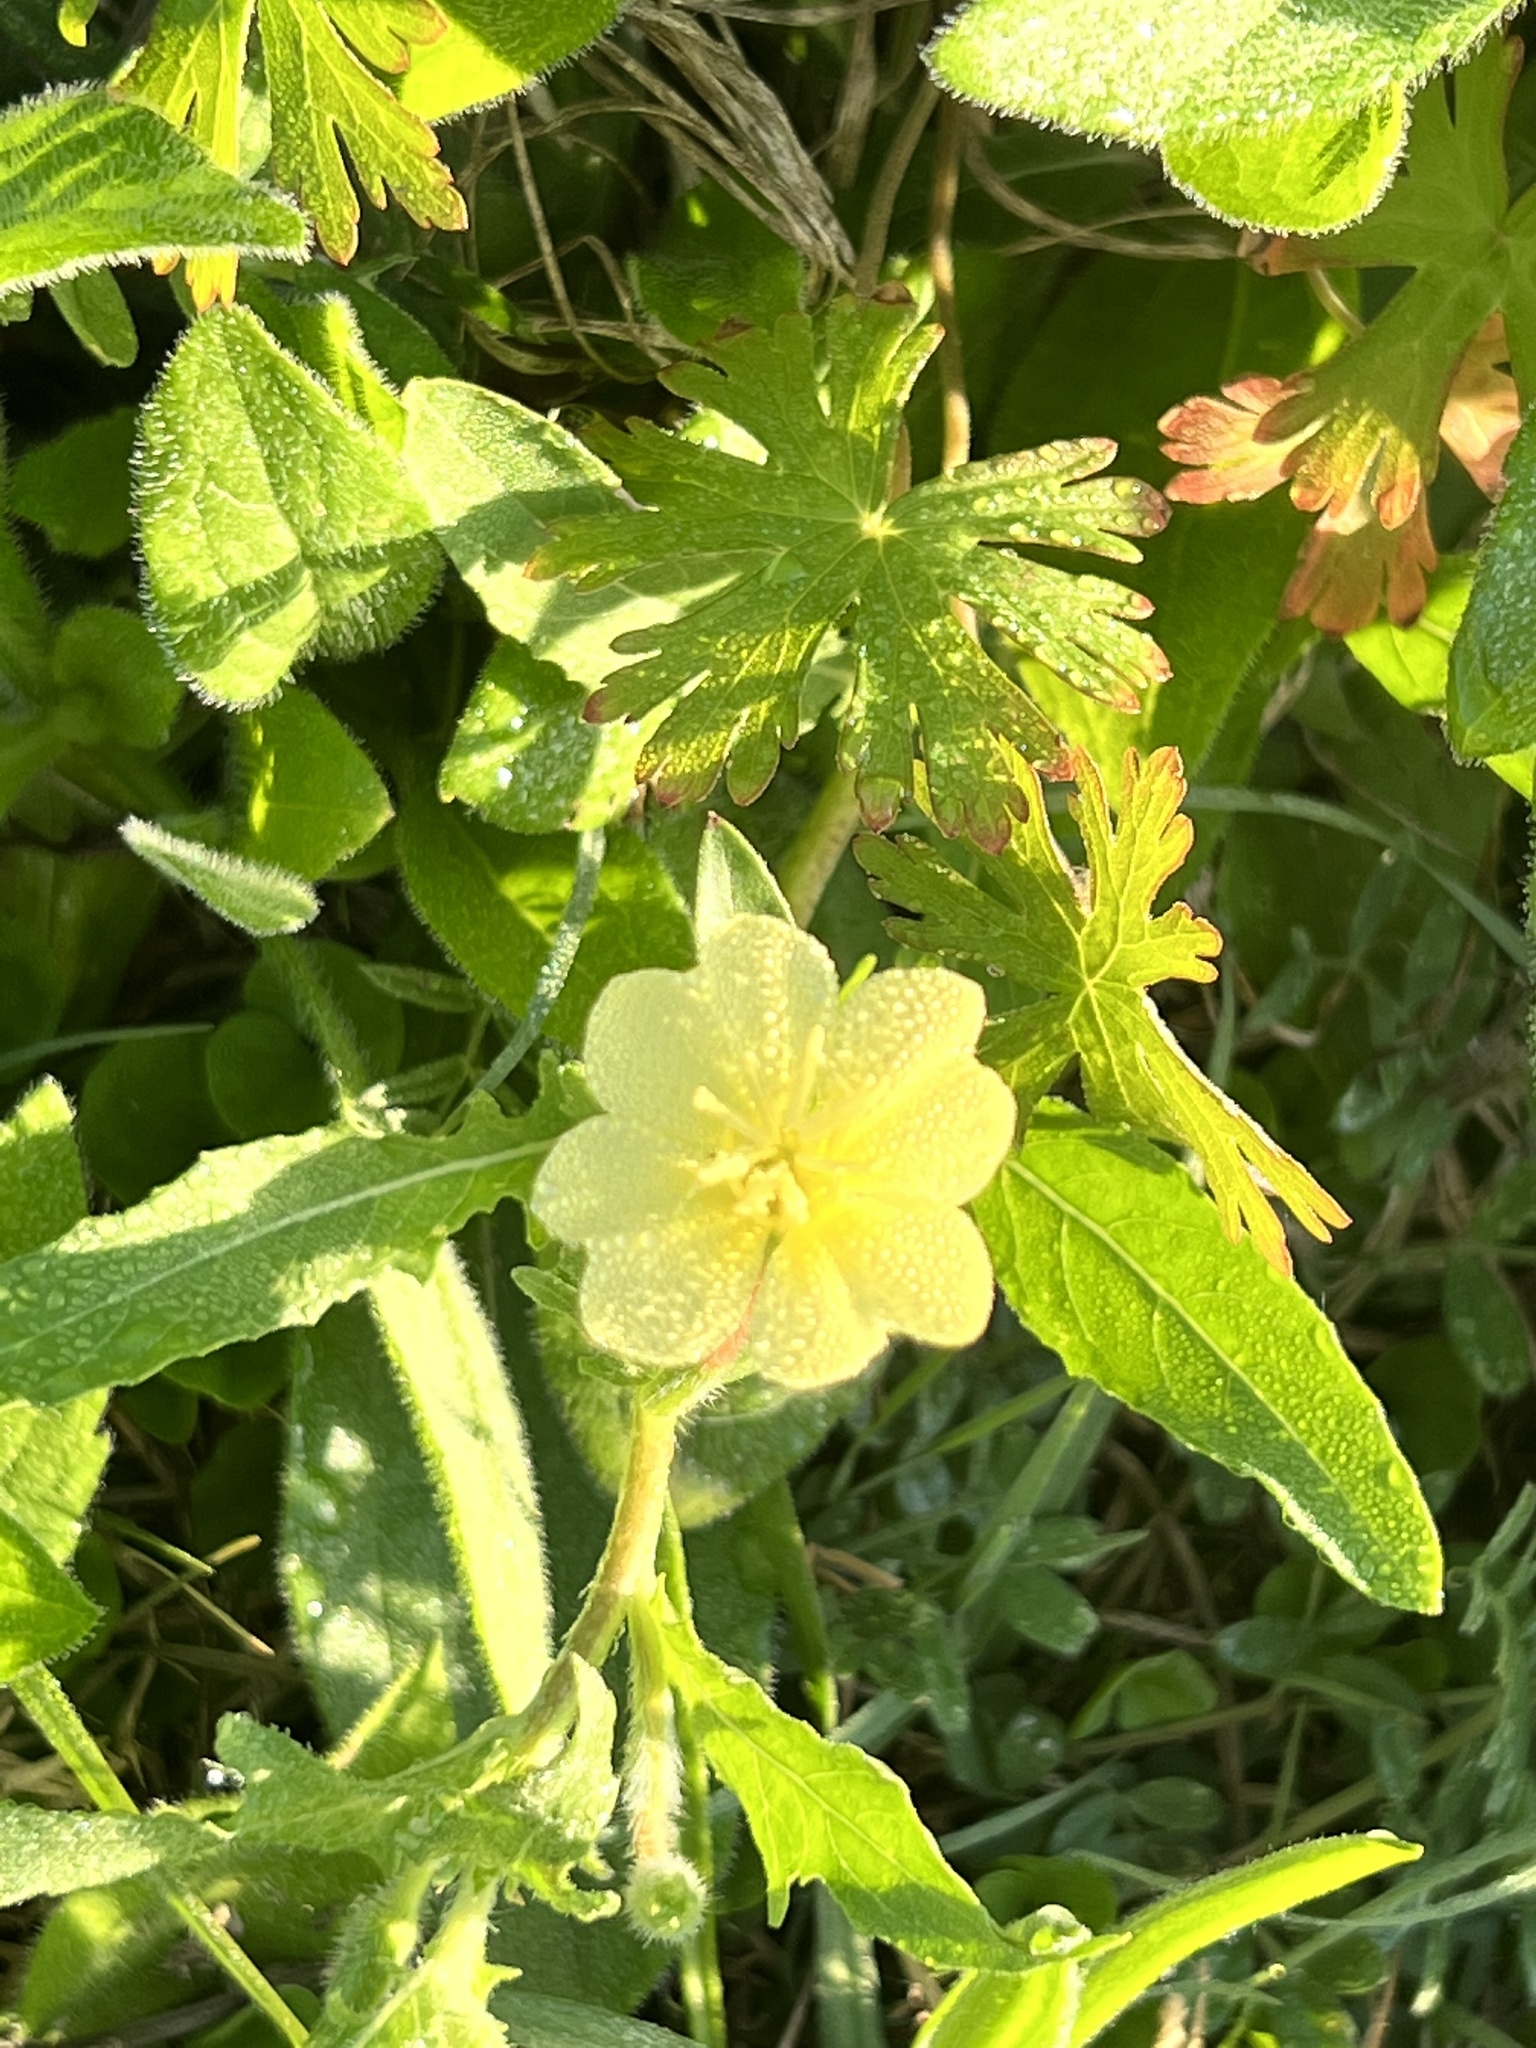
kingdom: Plantae
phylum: Tracheophyta
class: Magnoliopsida
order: Myrtales
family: Onagraceae
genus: Oenothera
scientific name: Oenothera laciniata
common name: Cut-leaved evening-primrose
